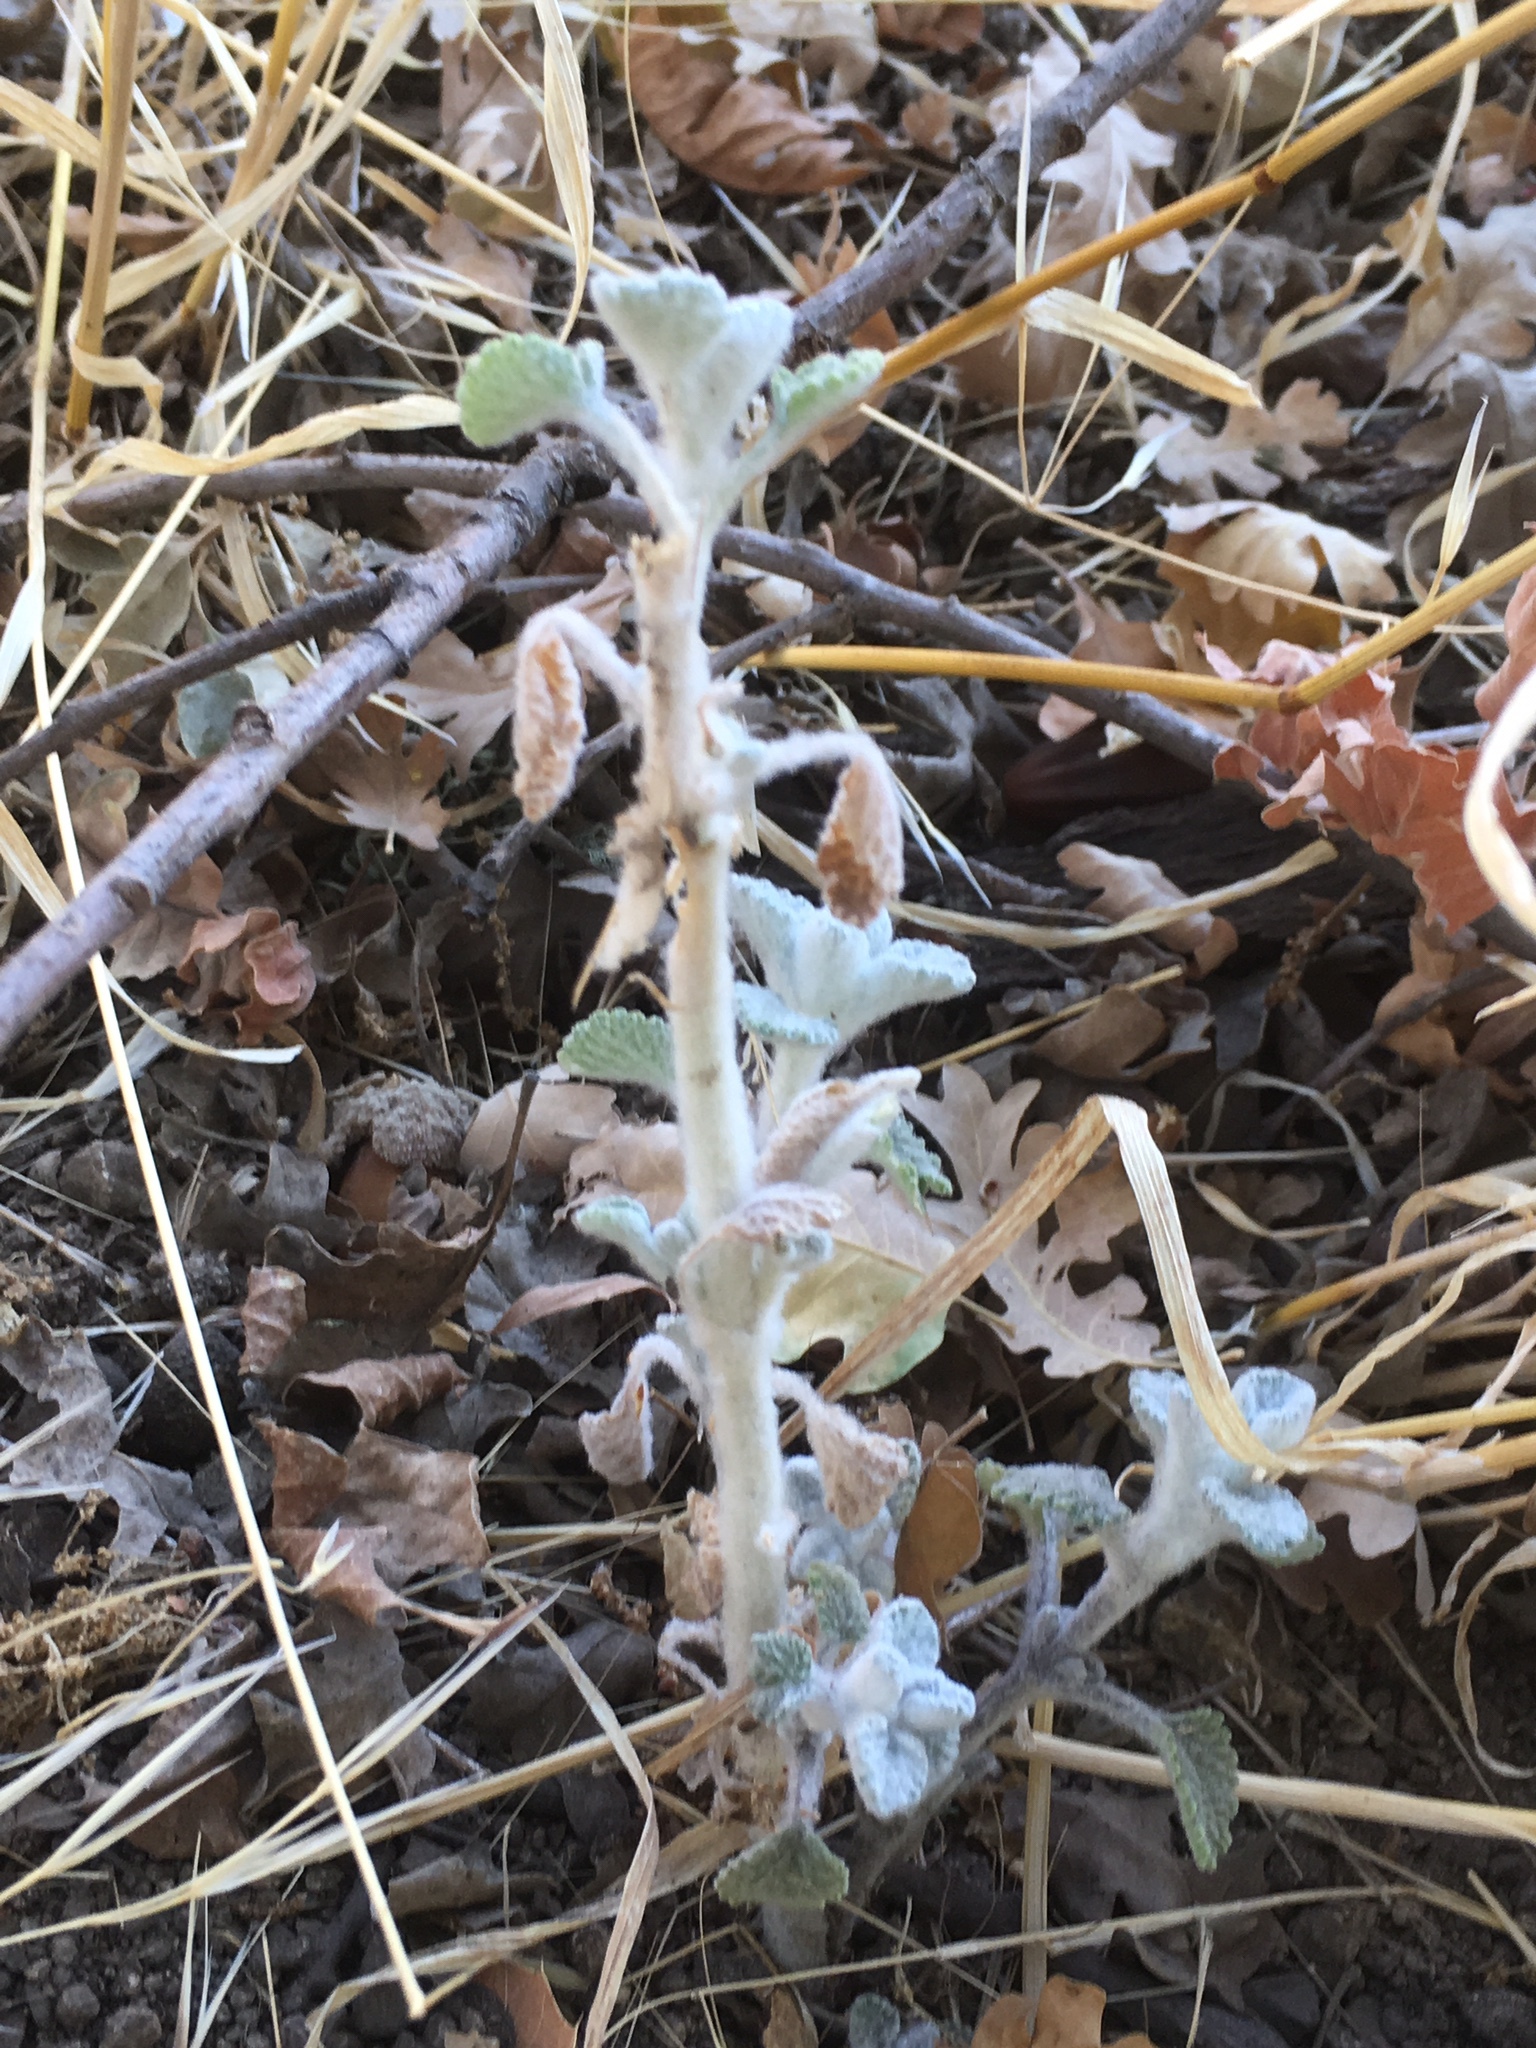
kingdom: Plantae
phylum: Tracheophyta
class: Magnoliopsida
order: Lamiales
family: Lamiaceae
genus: Marrubium
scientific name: Marrubium vulgare
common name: Horehound
